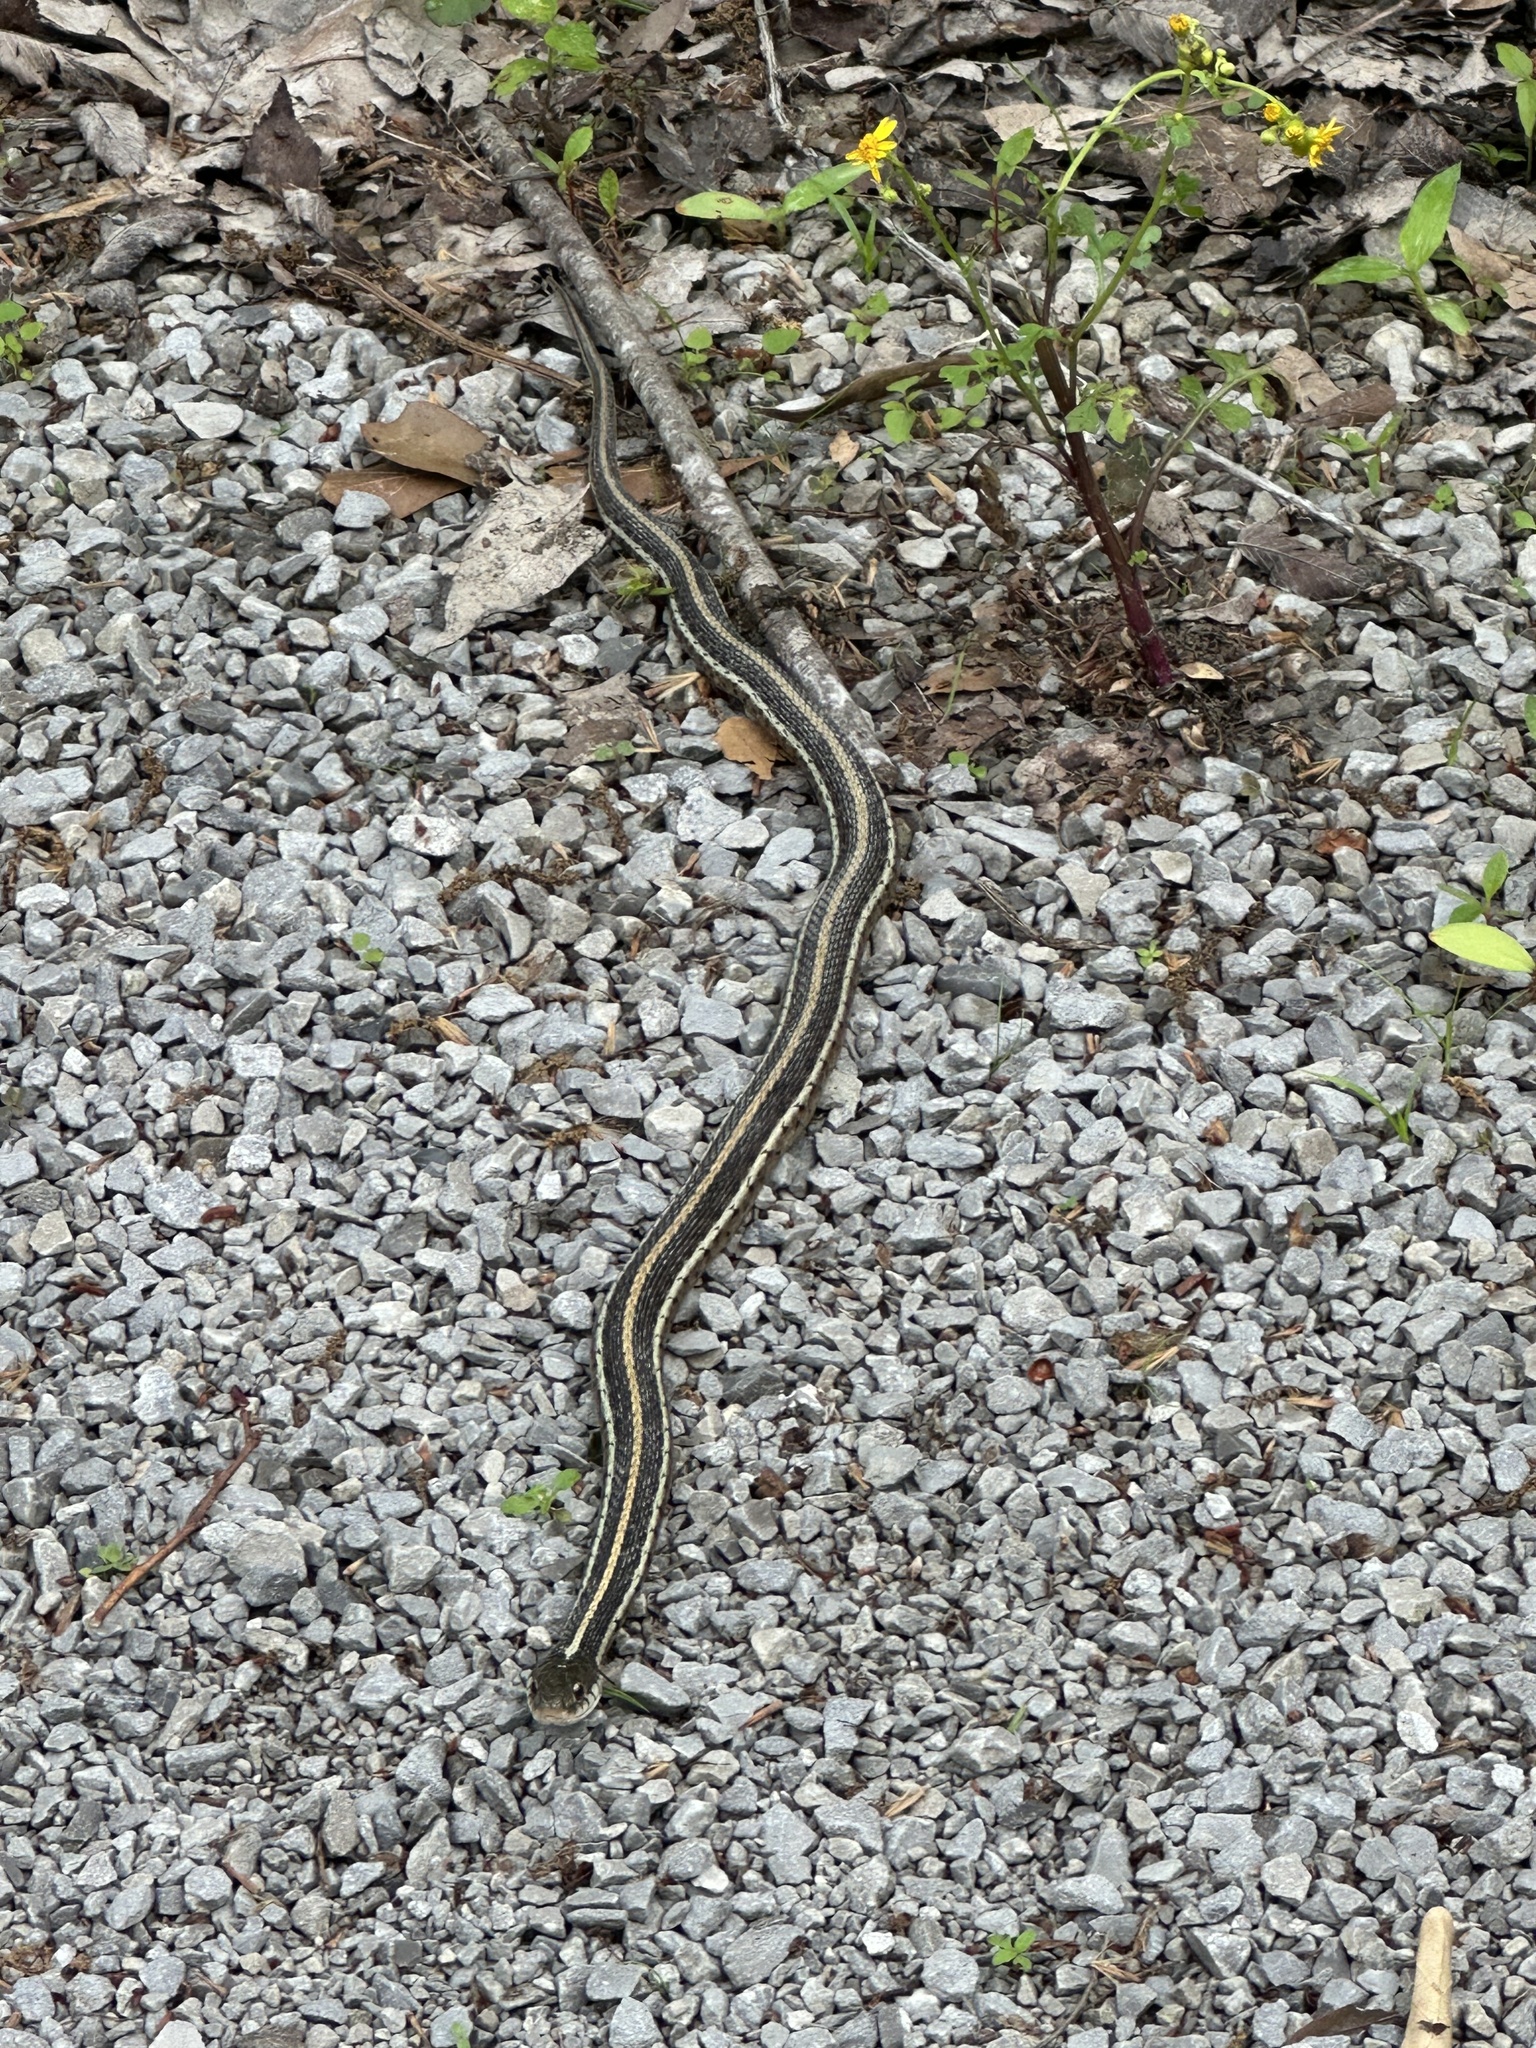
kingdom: Animalia
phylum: Chordata
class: Squamata
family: Colubridae
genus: Thamnophis
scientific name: Thamnophis sirtalis
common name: Common garter snake
